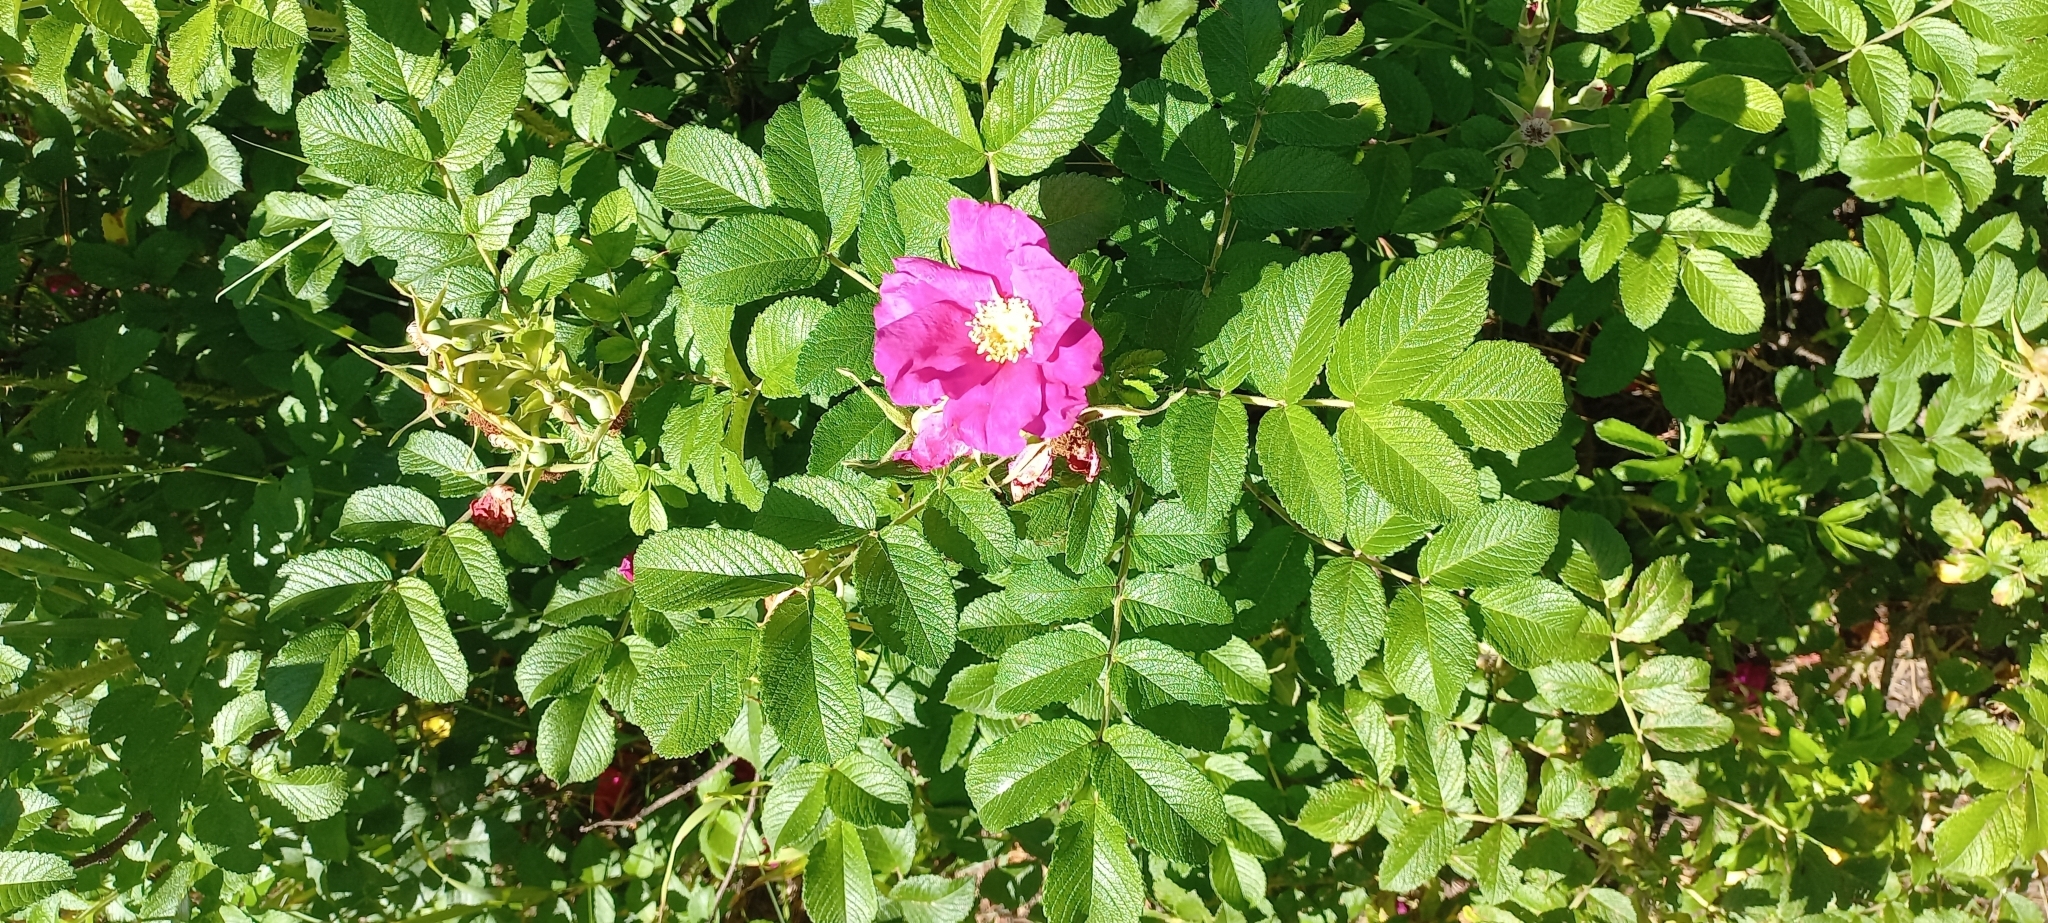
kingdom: Plantae
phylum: Tracheophyta
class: Magnoliopsida
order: Rosales
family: Rosaceae
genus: Rosa
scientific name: Rosa rugosa
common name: Japanese rose
